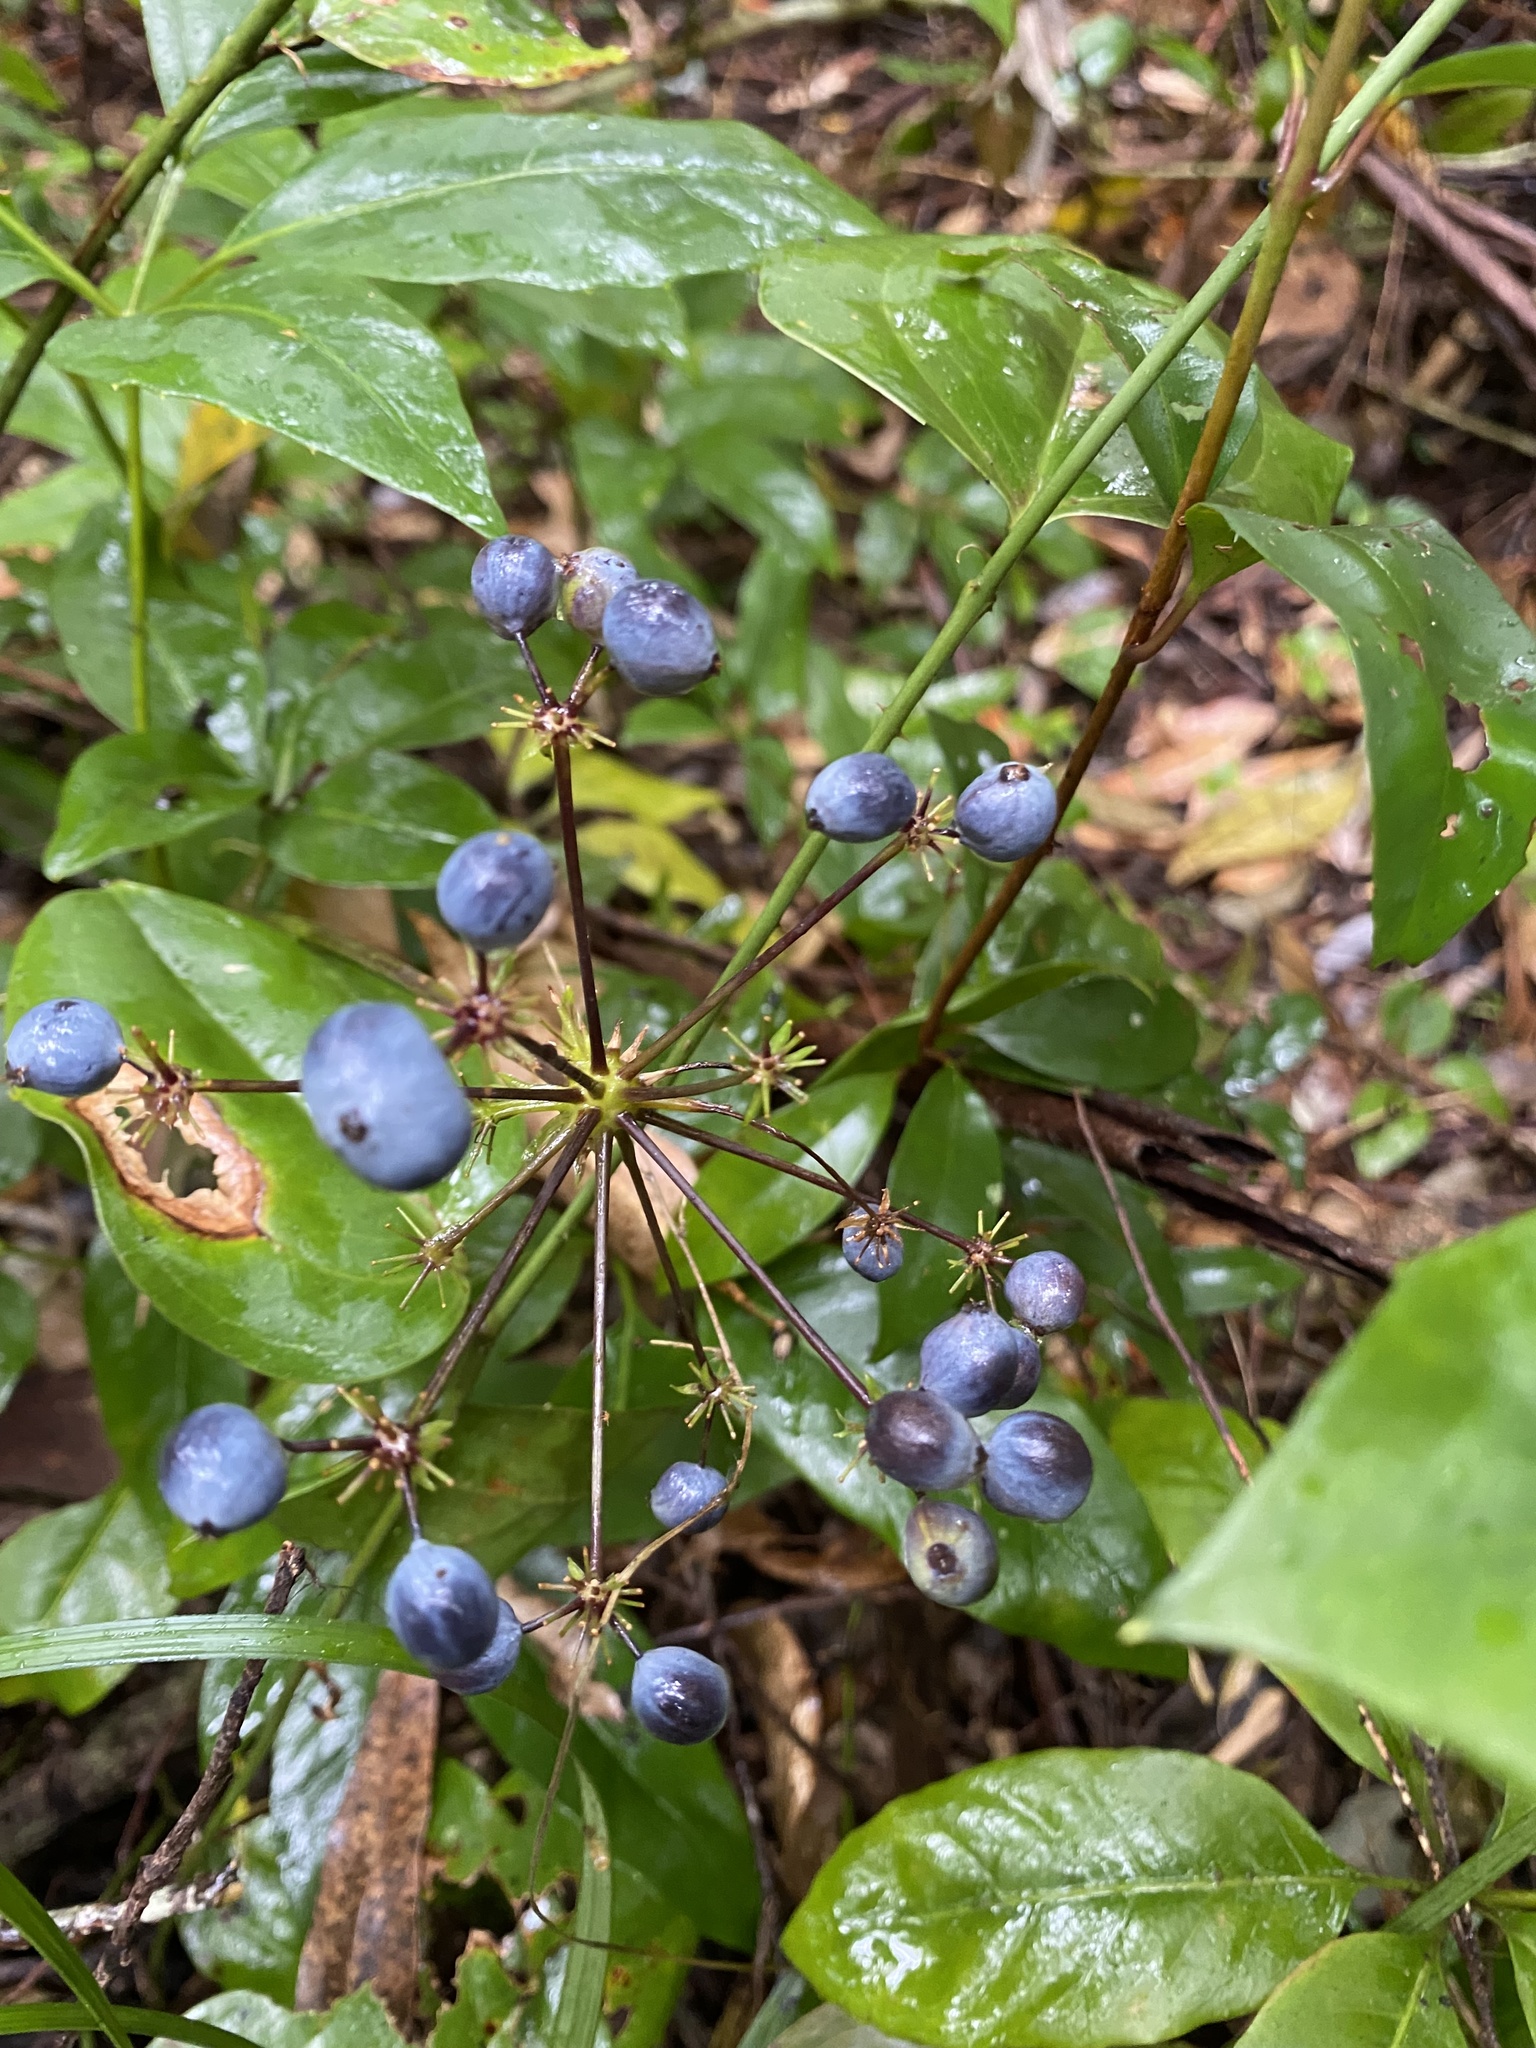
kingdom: Plantae
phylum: Tracheophyta
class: Magnoliopsida
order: Apiales
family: Apiaceae
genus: Mackinlaya
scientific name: Mackinlaya macrosciadea
